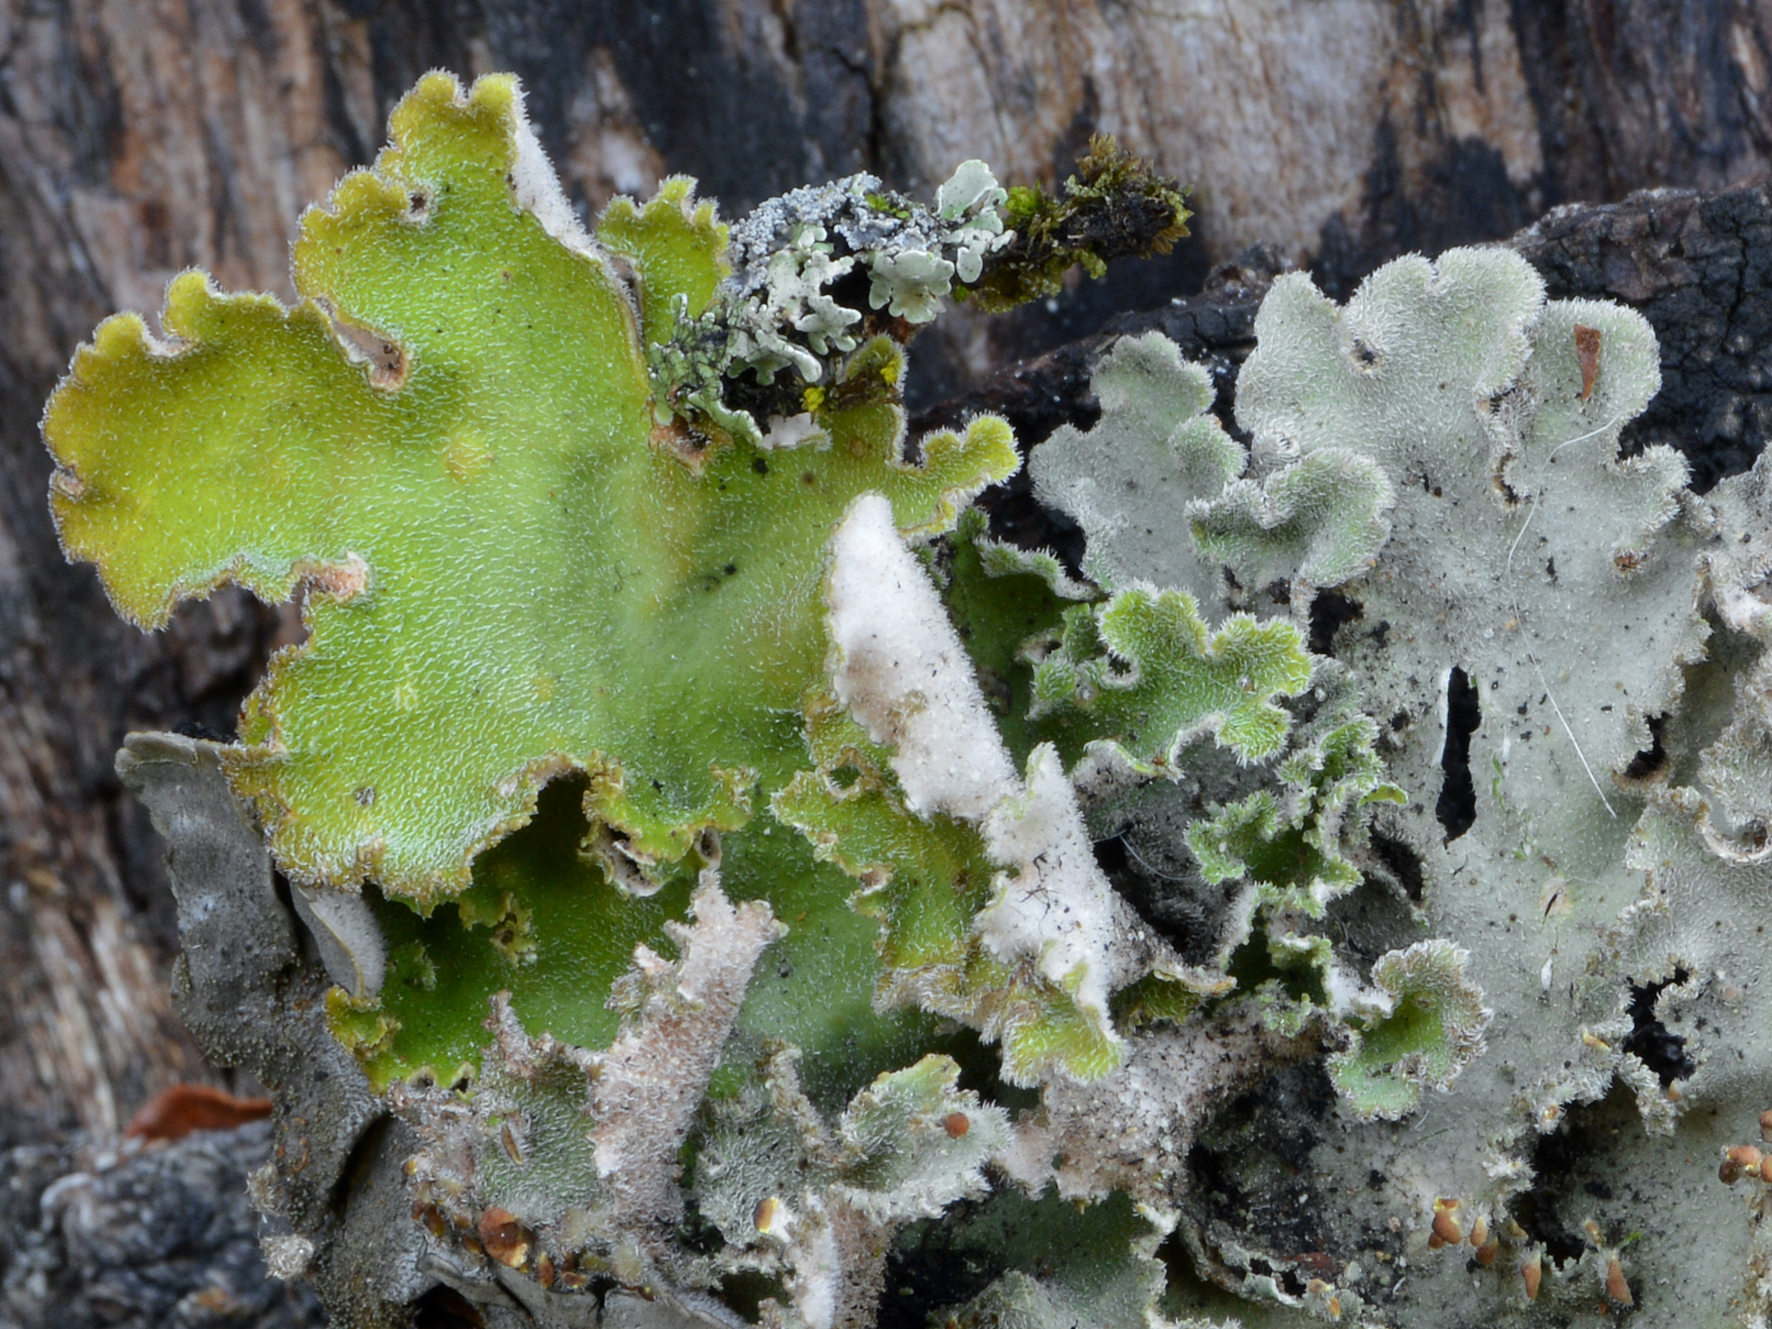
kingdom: Fungi
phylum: Ascomycota
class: Lecanoromycetes
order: Peltigerales
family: Lobariaceae
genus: Pseudocyphellaria
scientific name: Pseudocyphellaria gretae
